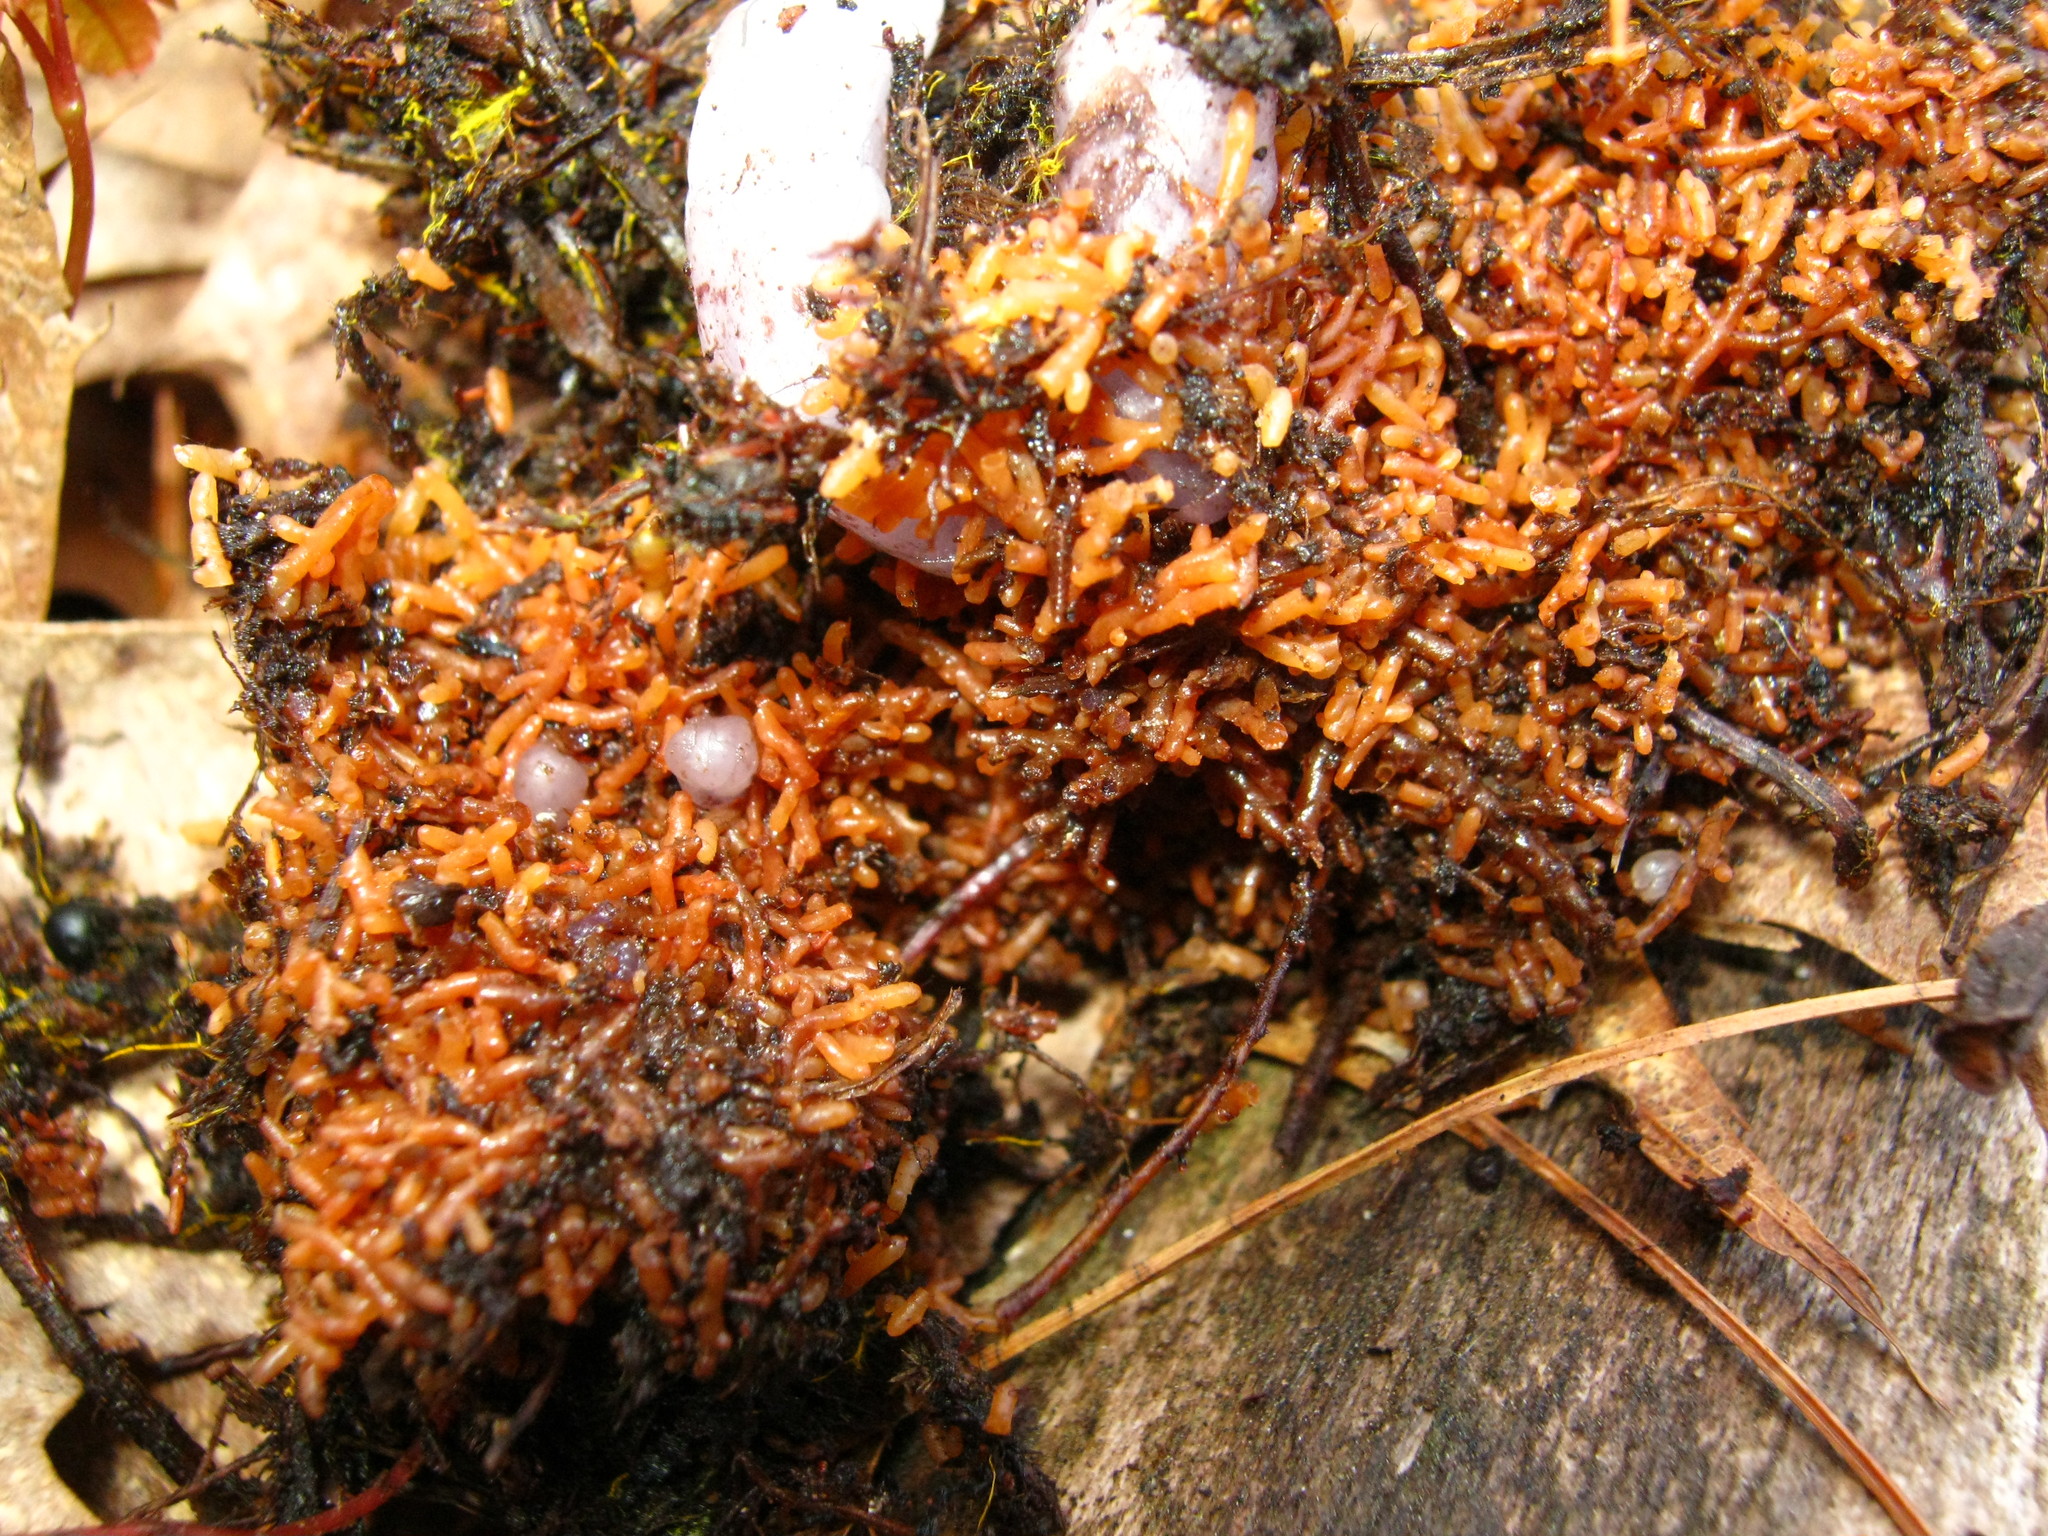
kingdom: Plantae
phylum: Tracheophyta
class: Magnoliopsida
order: Ericales
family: Ericaceae
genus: Monotropa
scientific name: Monotropa uniflora
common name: Convulsion root
